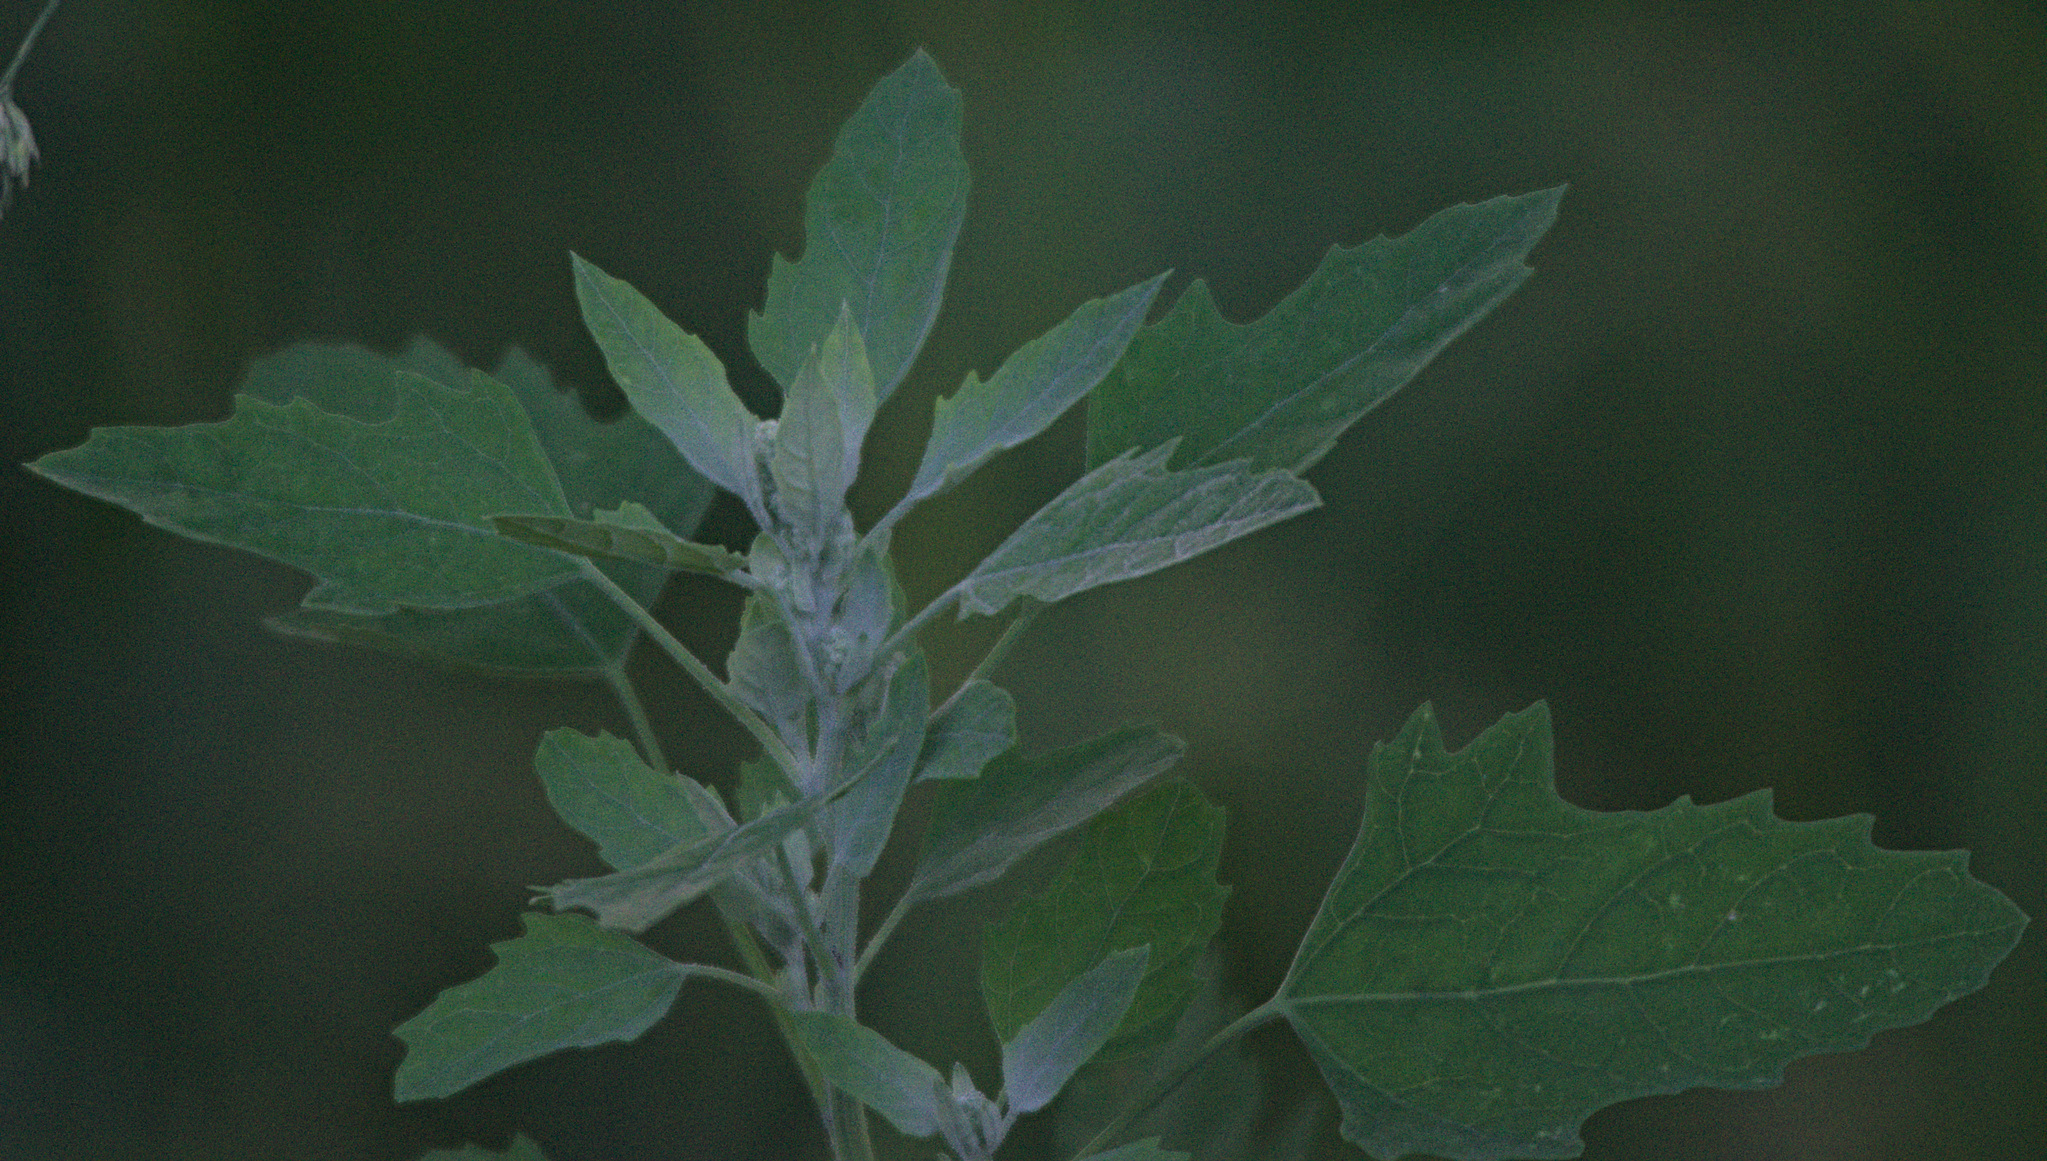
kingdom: Plantae
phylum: Tracheophyta
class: Magnoliopsida
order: Caryophyllales
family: Amaranthaceae
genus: Chenopodium
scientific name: Chenopodium album
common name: Fat-hen
